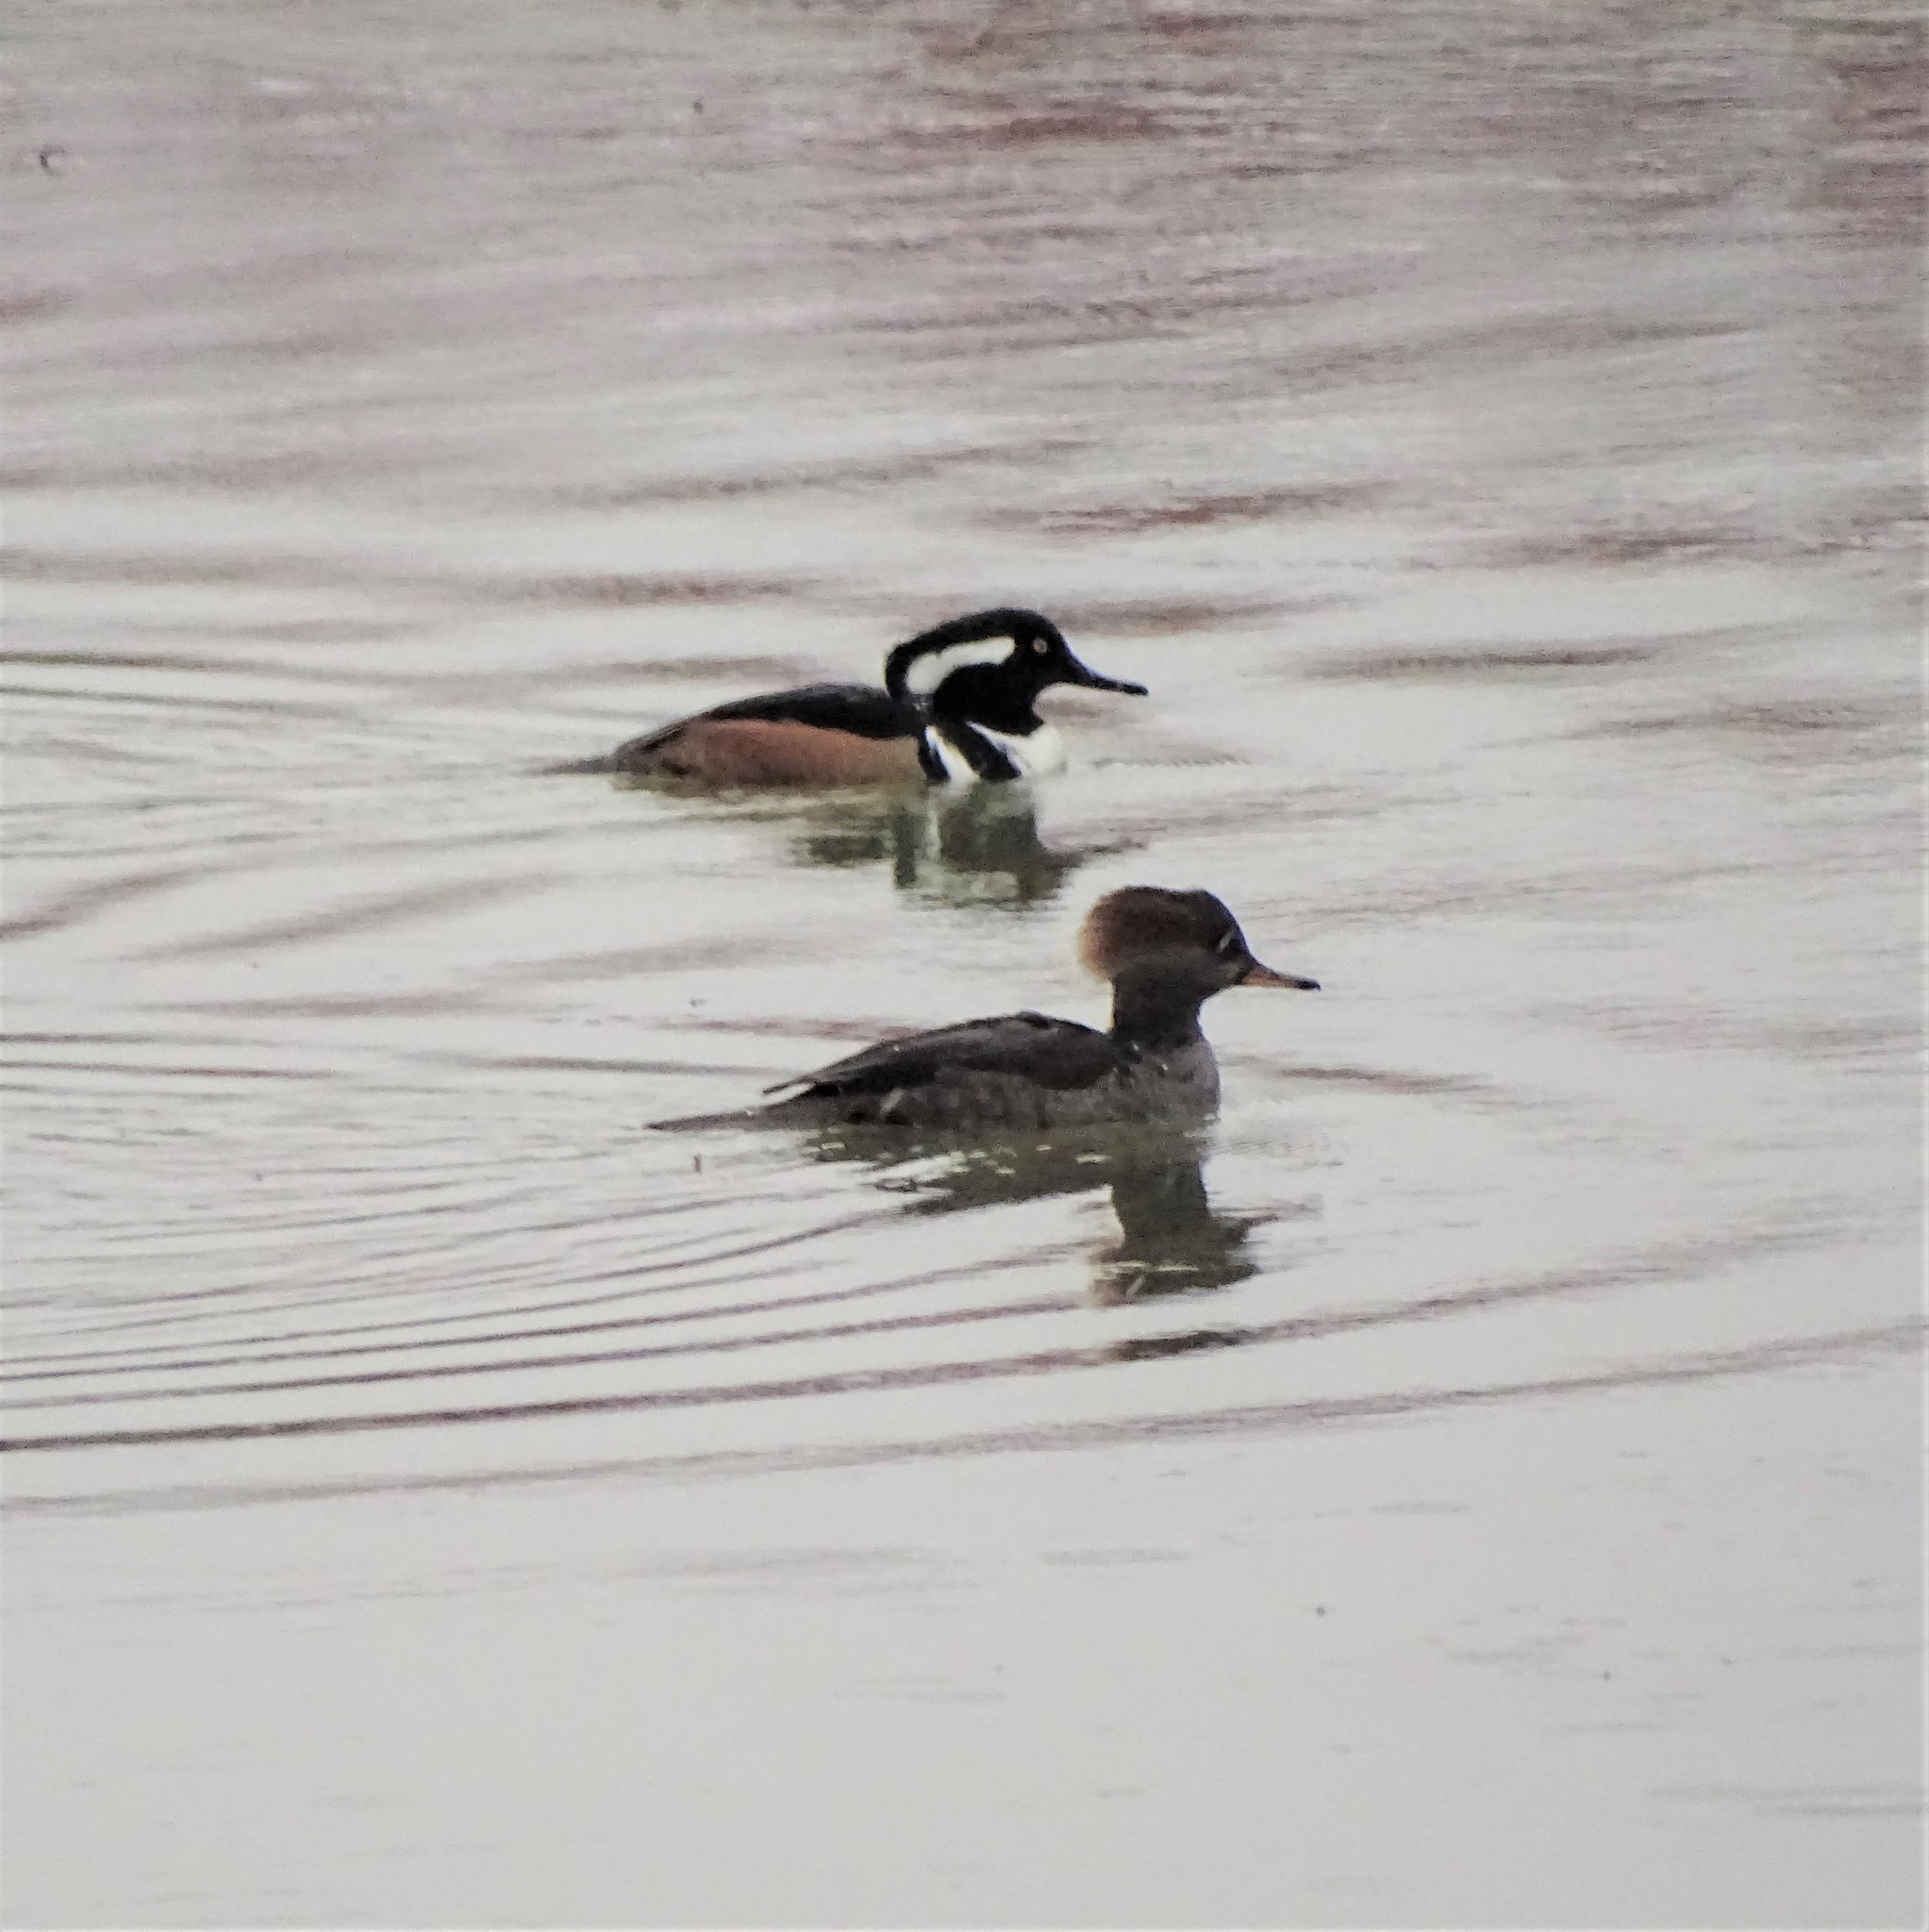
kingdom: Animalia
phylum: Chordata
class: Aves
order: Anseriformes
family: Anatidae
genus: Lophodytes
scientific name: Lophodytes cucullatus
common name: Hooded merganser
